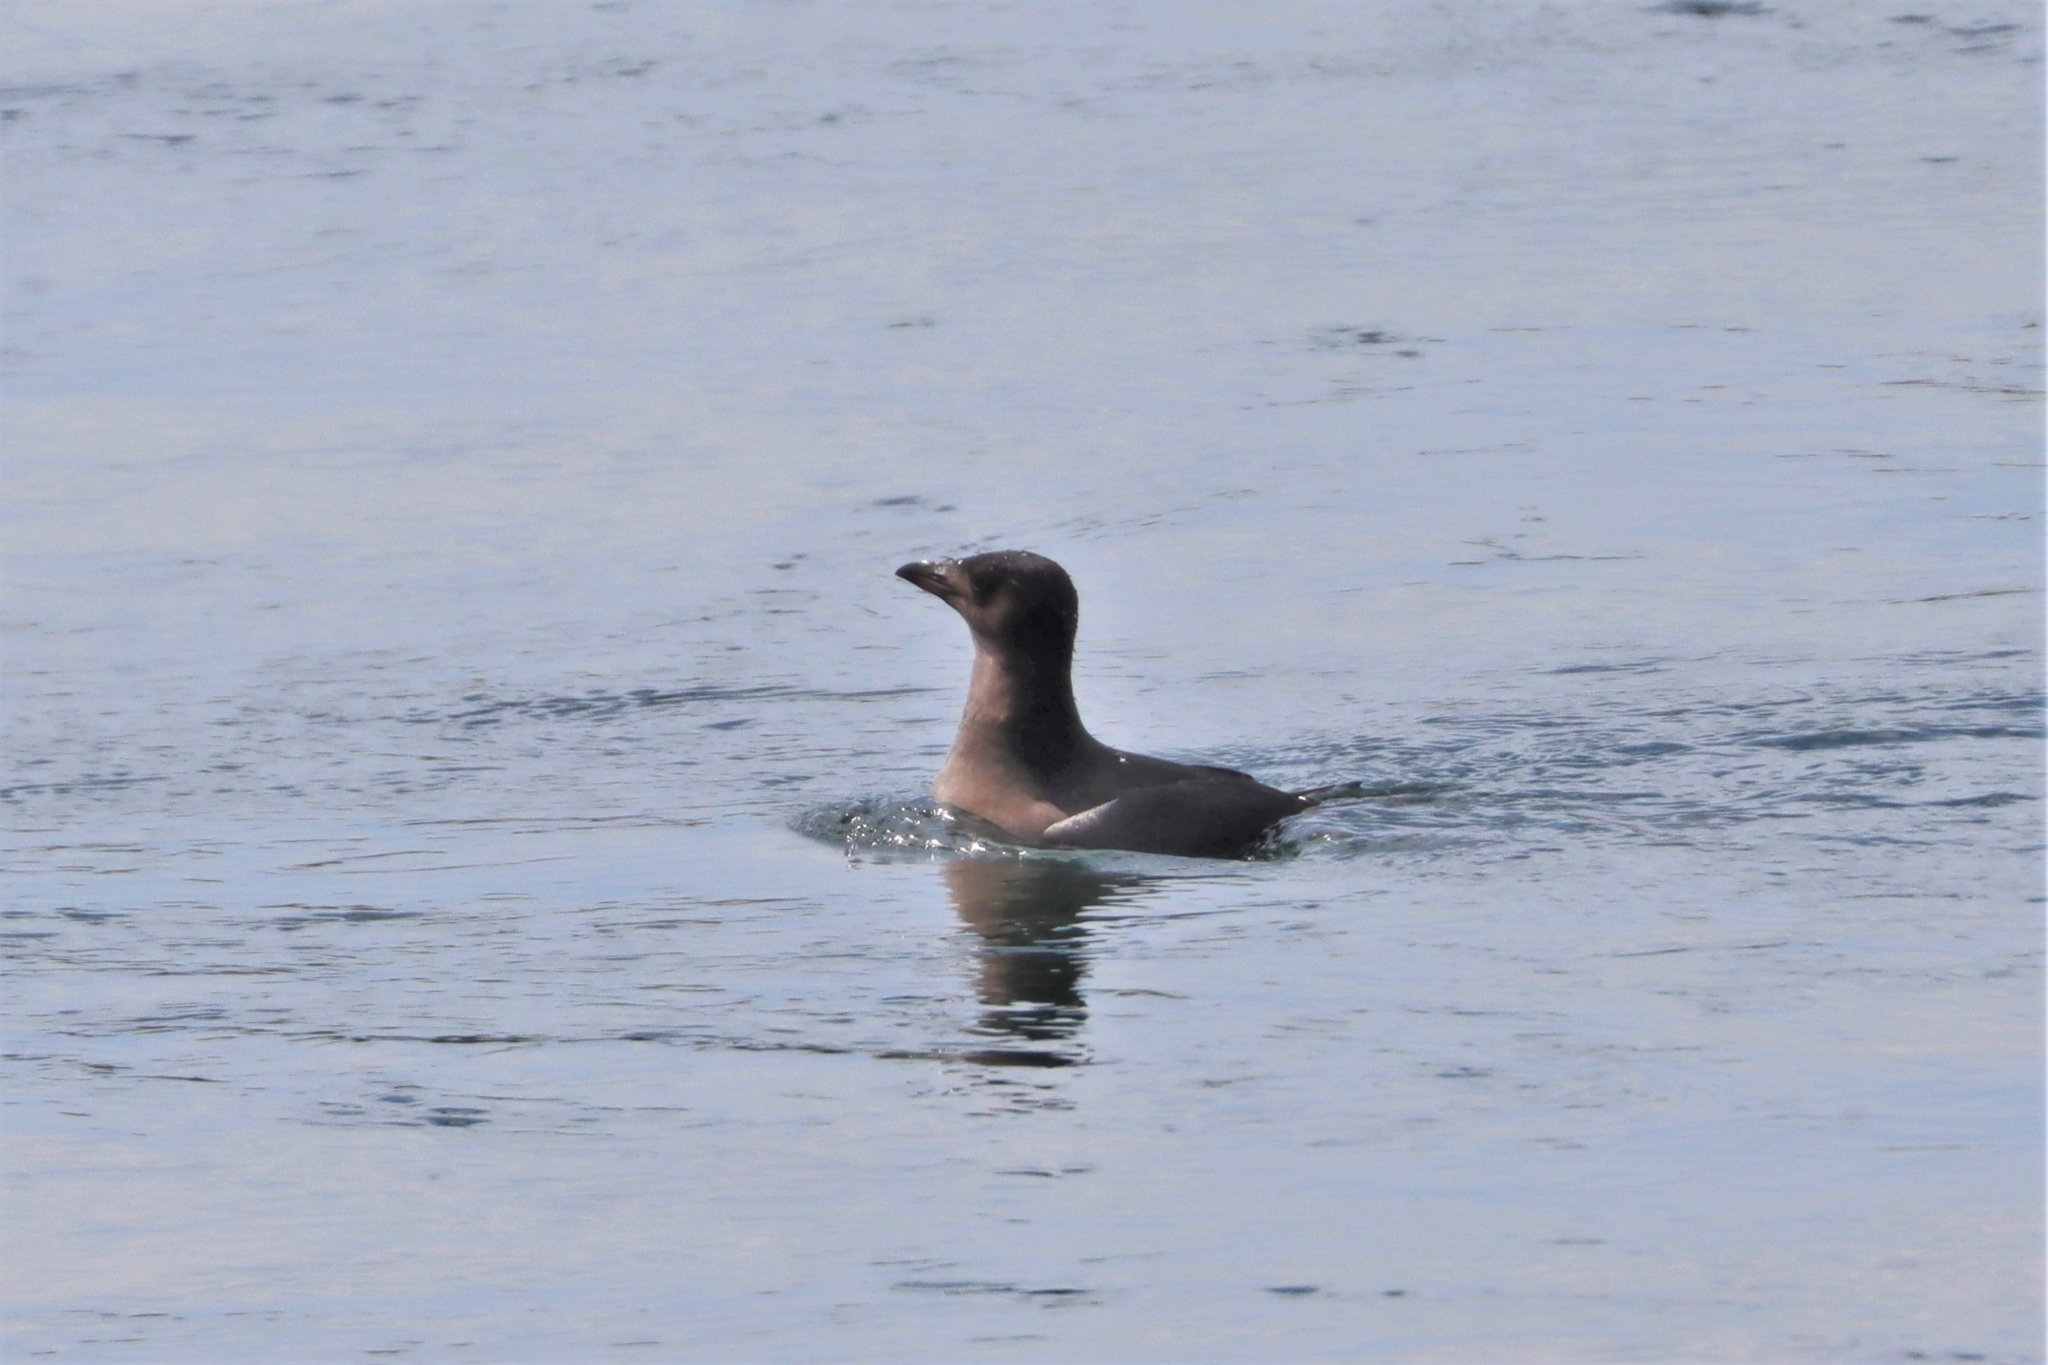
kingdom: Animalia
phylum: Chordata
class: Aves
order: Charadriiformes
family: Alcidae
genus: Cerorhinca
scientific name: Cerorhinca monocerata
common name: Rhinoceros auklet
